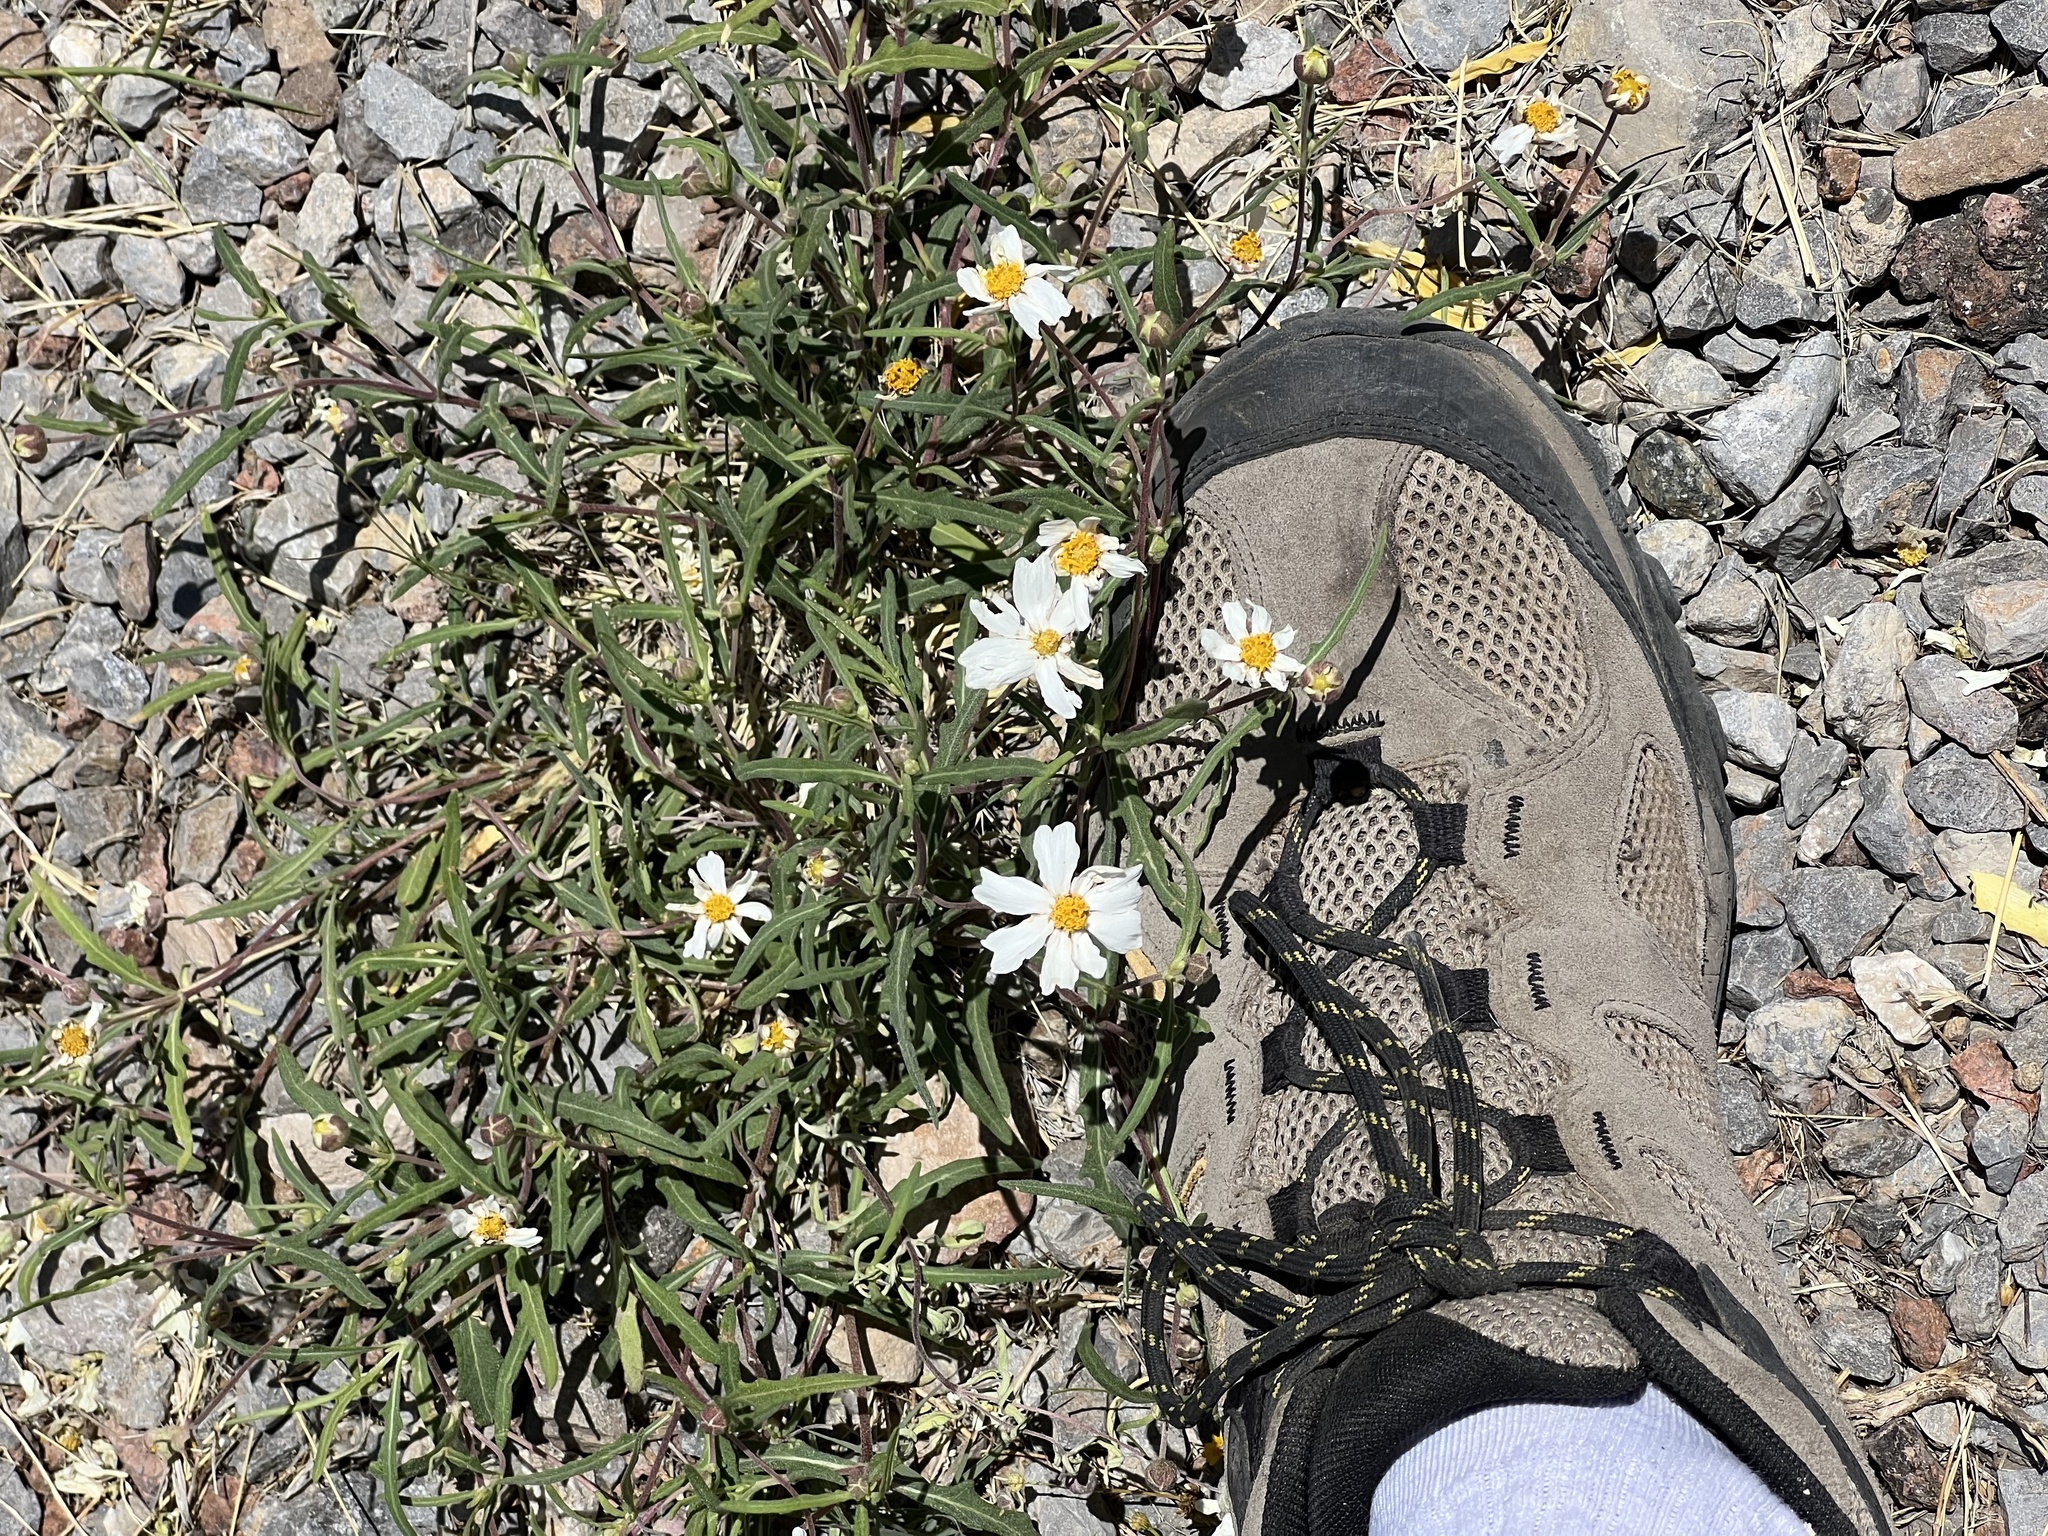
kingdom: Plantae
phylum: Tracheophyta
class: Magnoliopsida
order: Asterales
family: Asteraceae
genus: Melampodium
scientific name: Melampodium leucanthum
